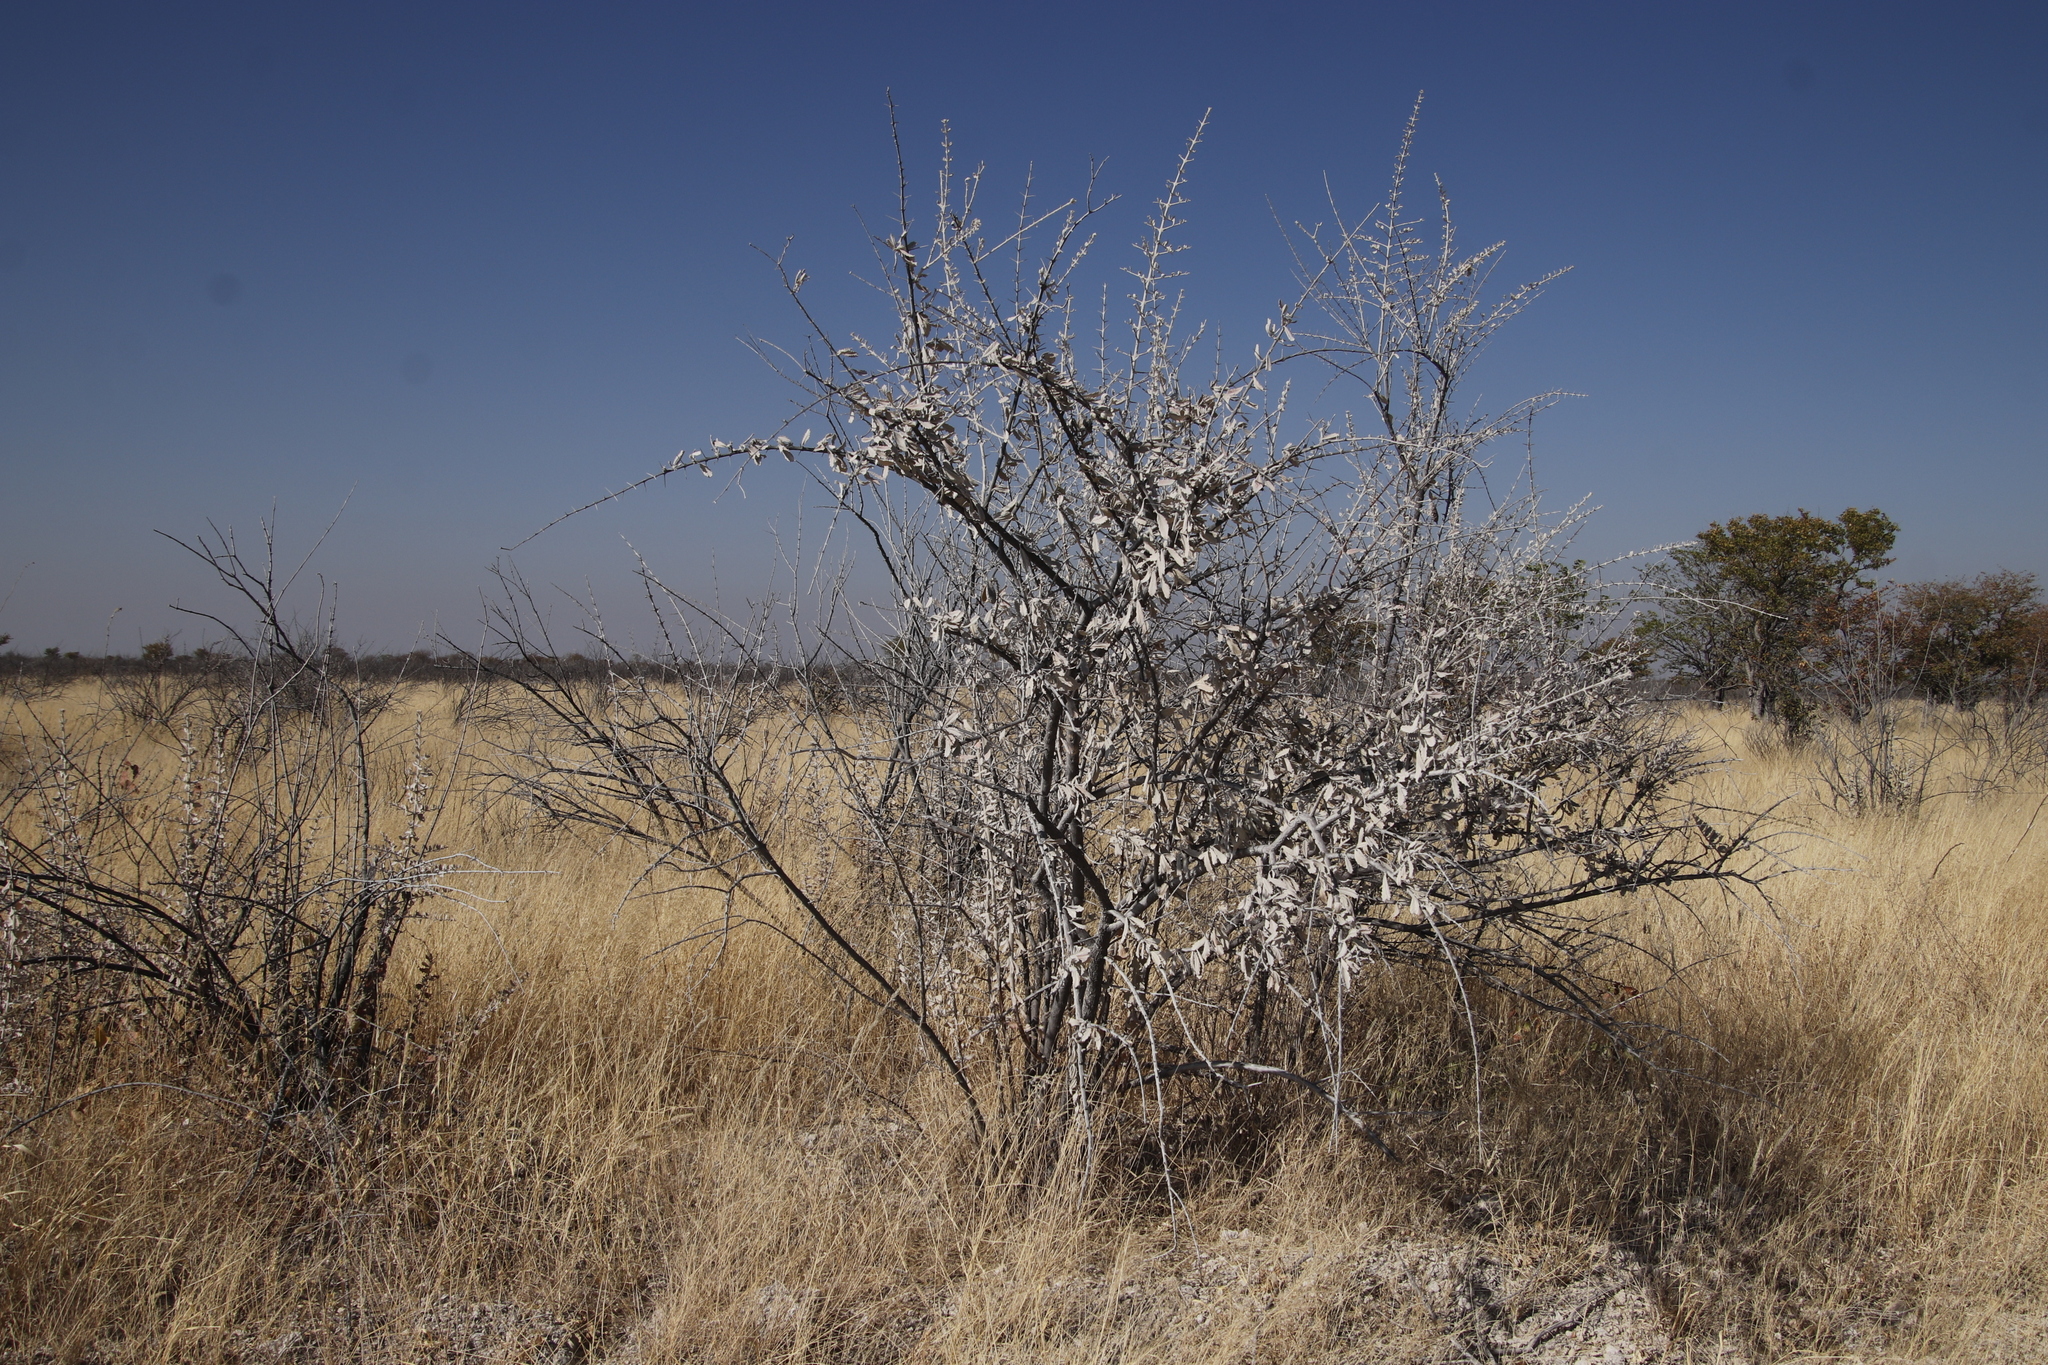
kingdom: Plantae
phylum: Tracheophyta
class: Magnoliopsida
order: Lamiales
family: Bignoniaceae
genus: Catophractes
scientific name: Catophractes alexandri
